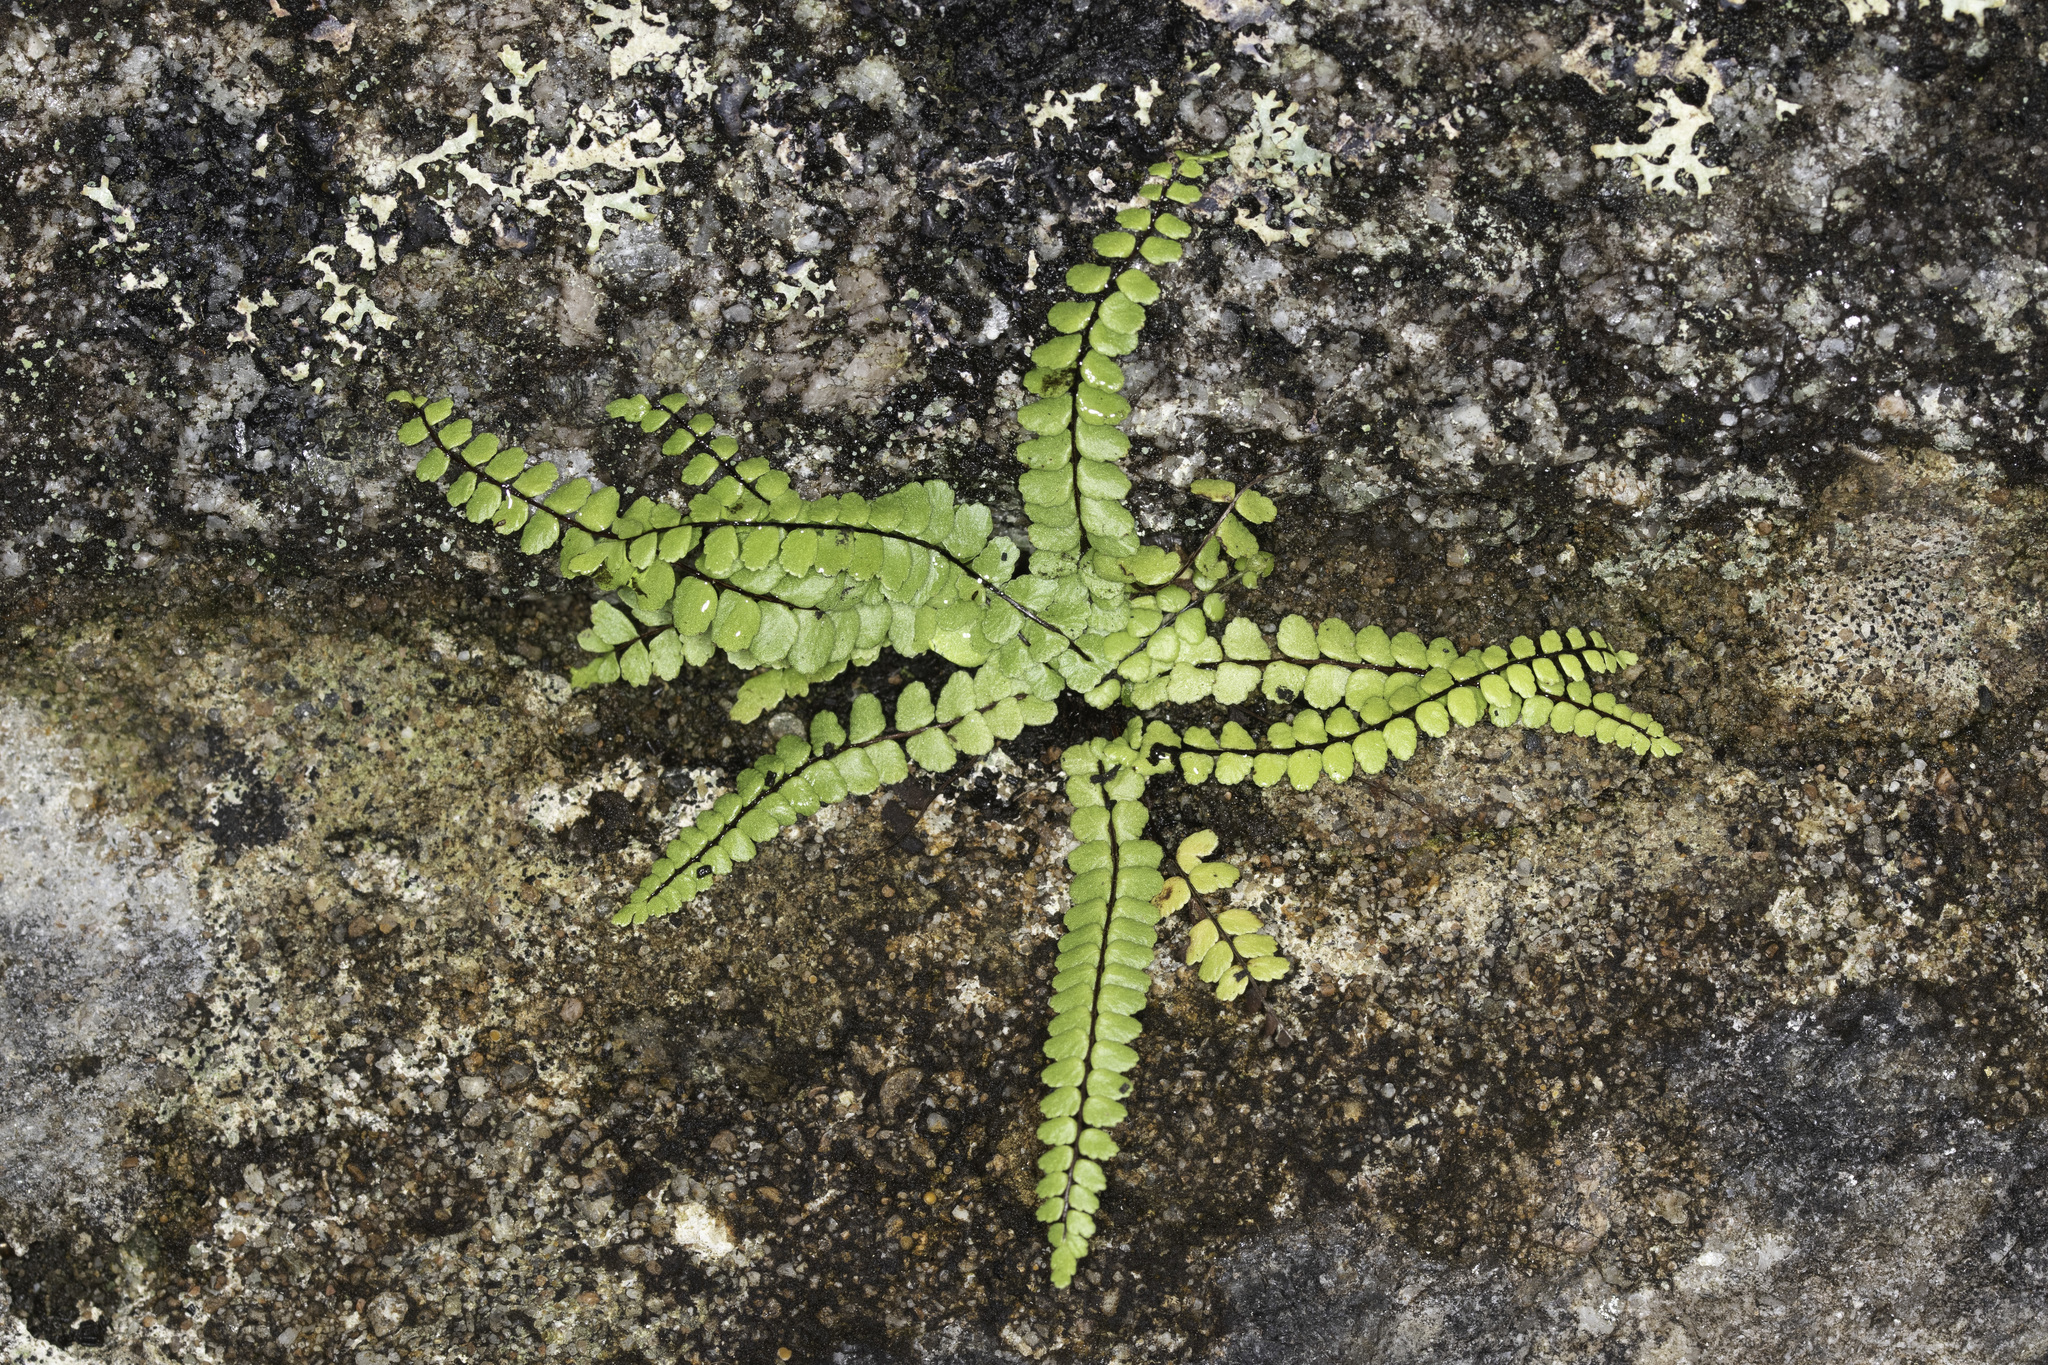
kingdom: Plantae
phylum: Tracheophyta
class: Polypodiopsida
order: Polypodiales
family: Aspleniaceae
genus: Asplenium
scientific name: Asplenium trichomanes
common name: Maidenhair spleenwort
